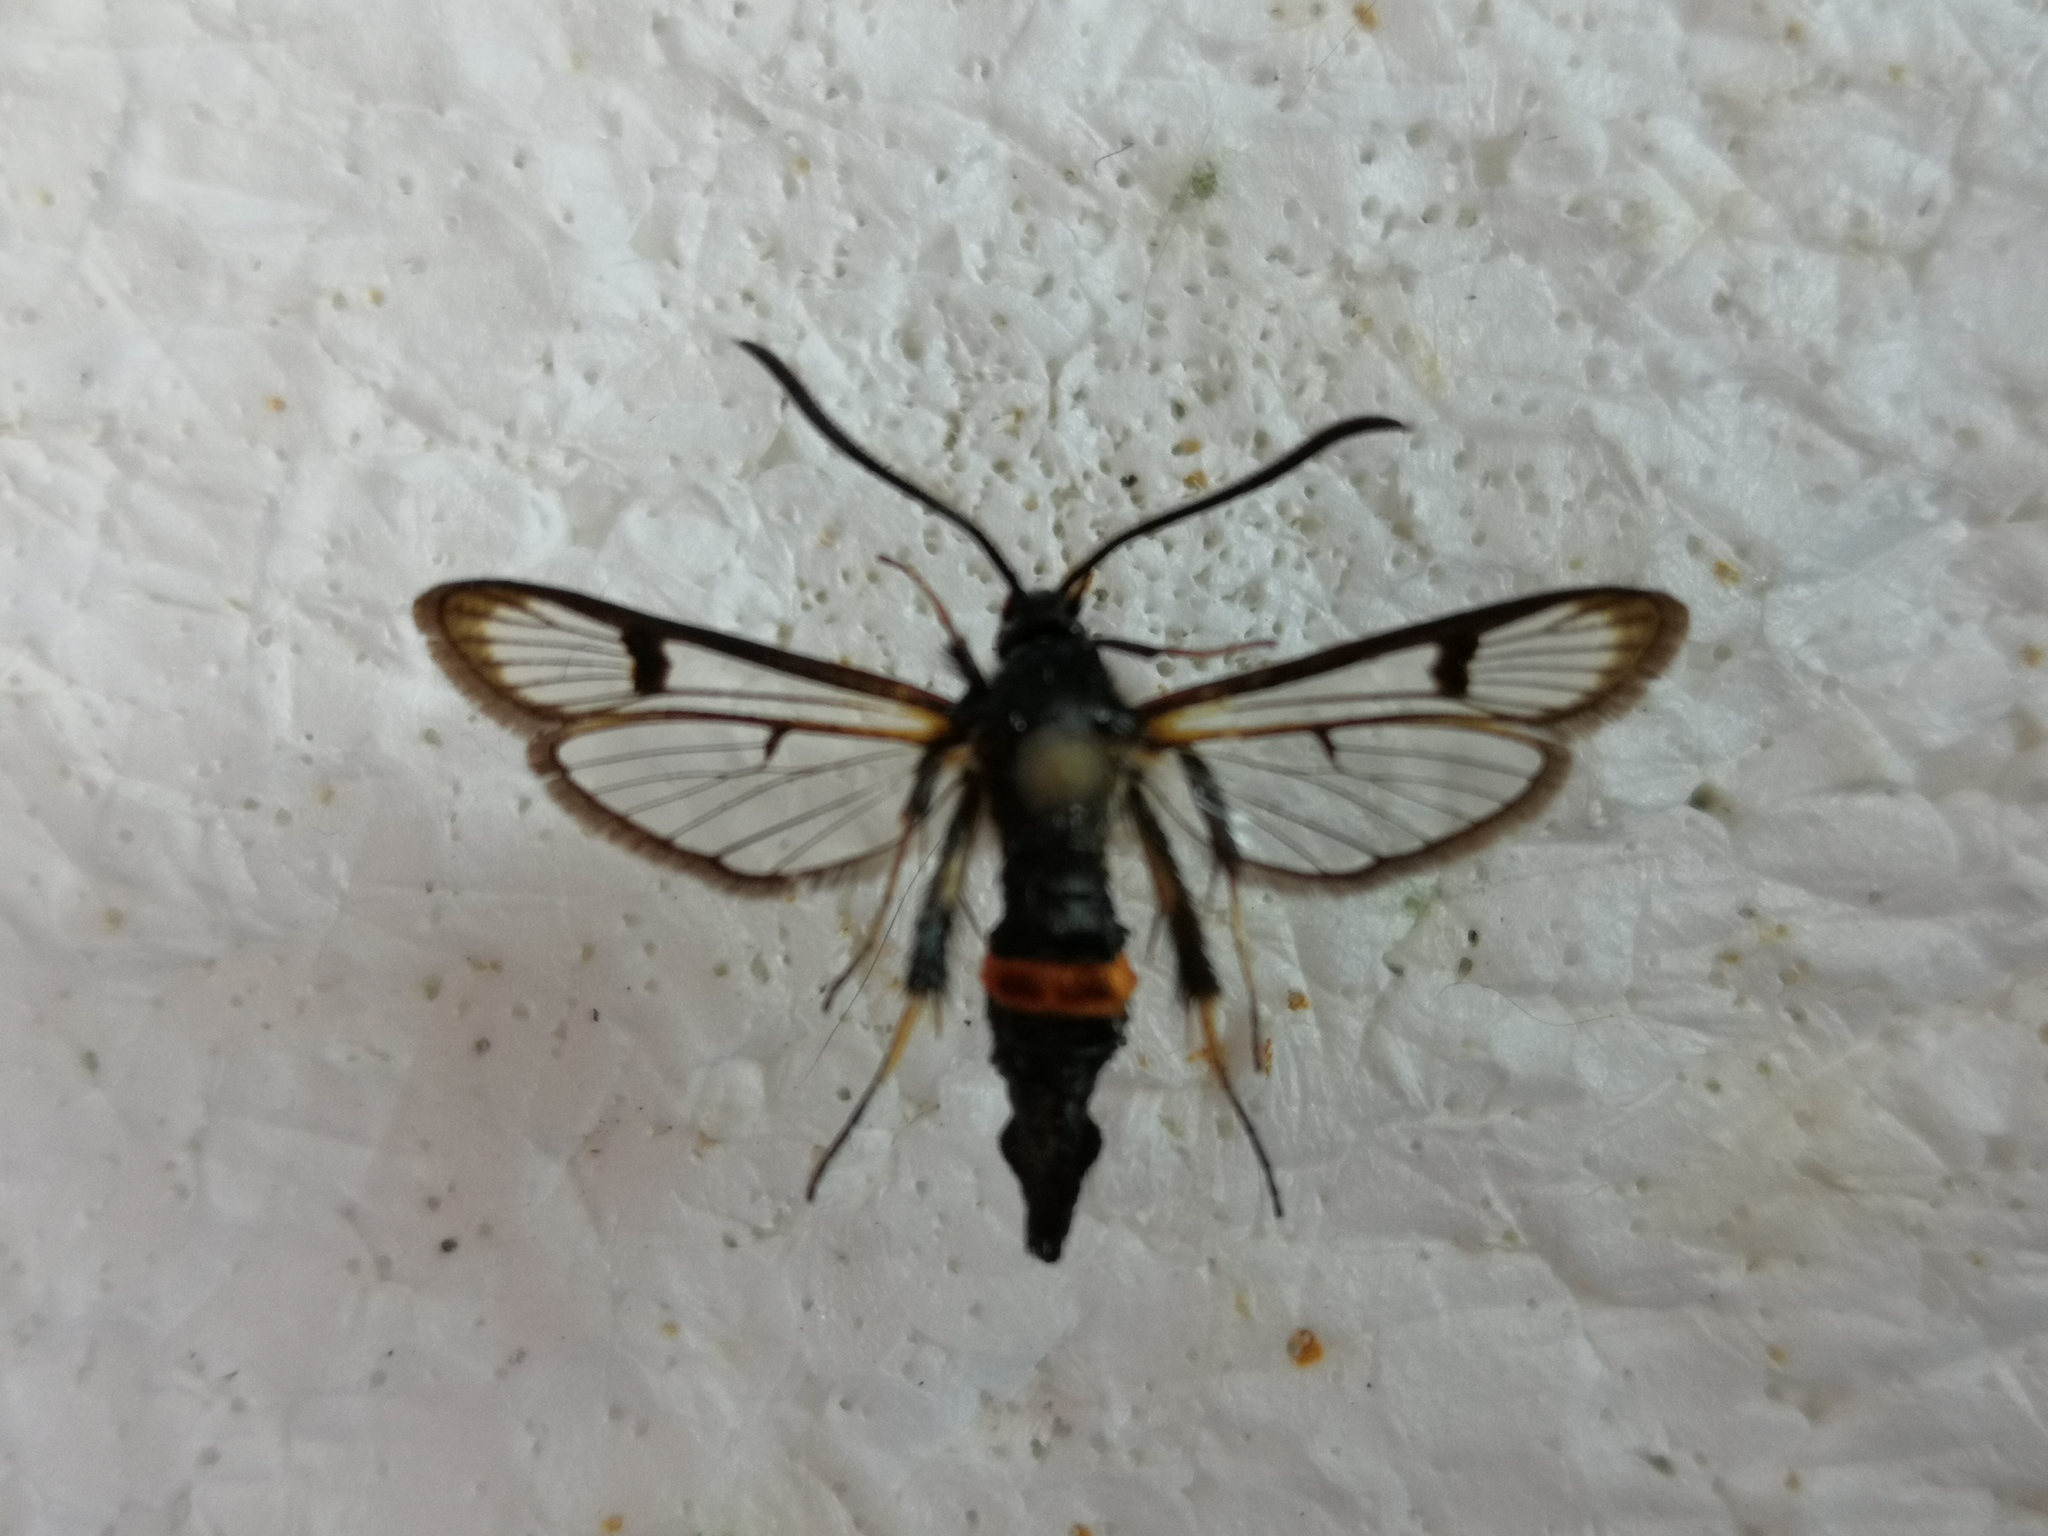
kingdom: Animalia
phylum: Arthropoda
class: Insecta
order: Lepidoptera
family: Sesiidae
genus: Synanthedon
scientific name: Synanthedon culiciformis
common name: Large red-belted clearwing
